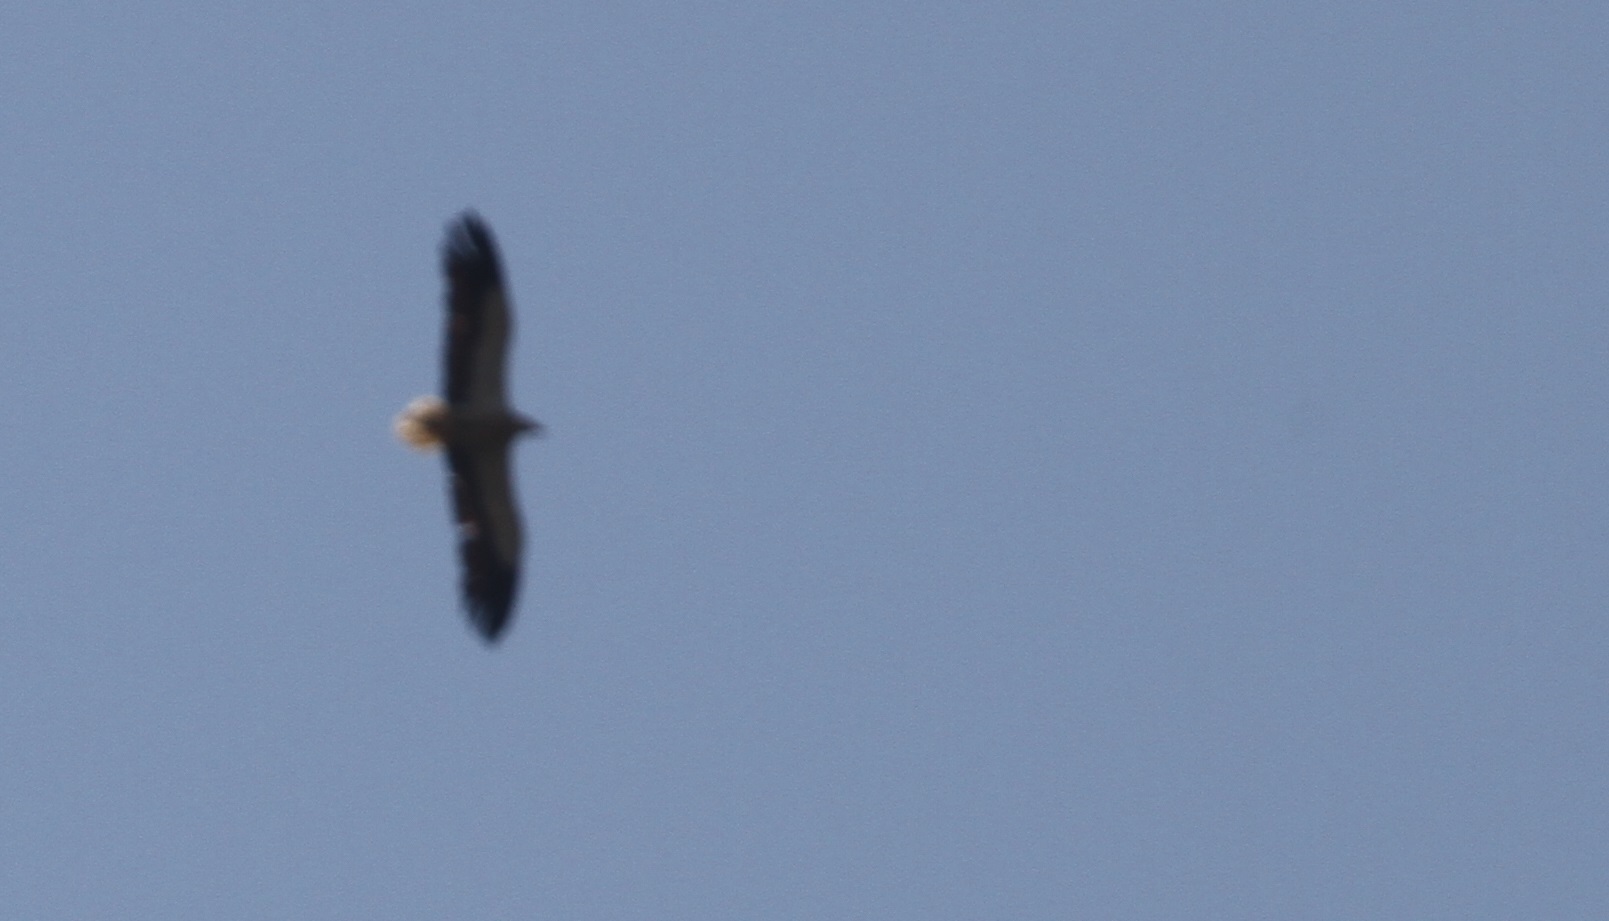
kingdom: Animalia
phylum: Chordata
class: Aves
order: Accipitriformes
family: Accipitridae
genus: Neophron
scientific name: Neophron percnopterus
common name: Egyptian vulture
